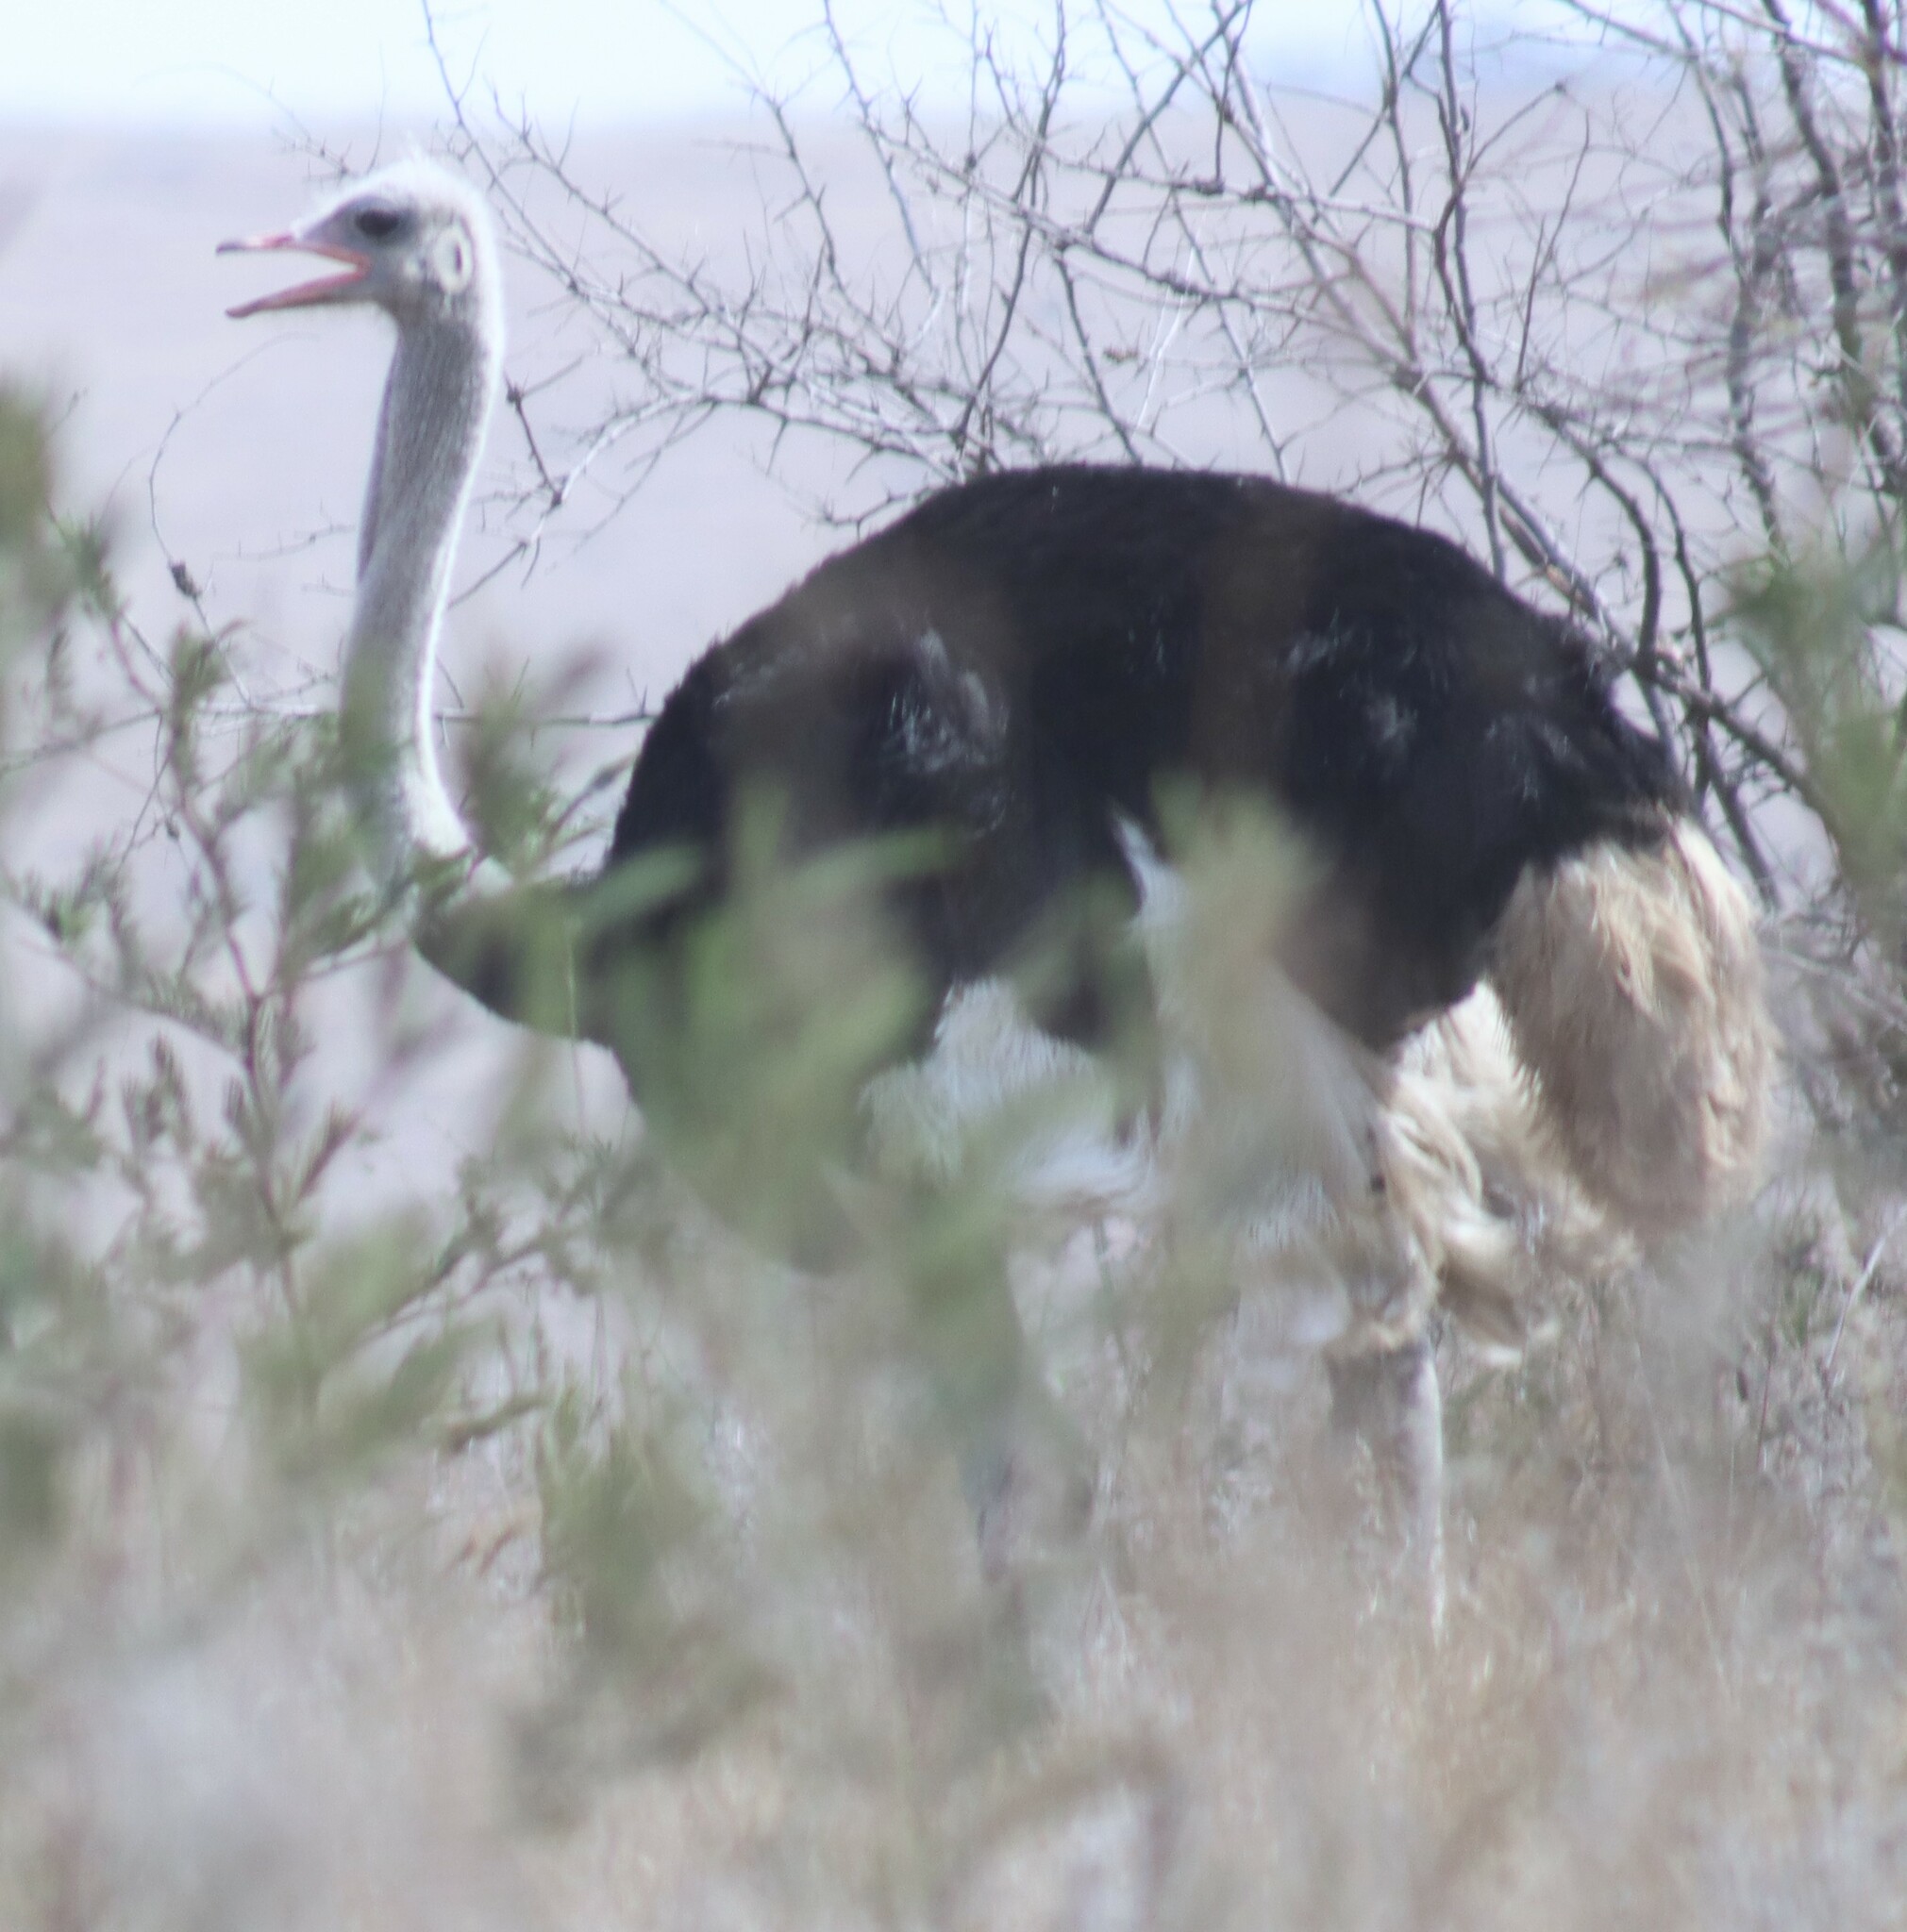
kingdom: Animalia
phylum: Chordata
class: Aves
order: Struthioniformes
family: Struthionidae
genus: Struthio
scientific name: Struthio camelus
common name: Common ostrich
